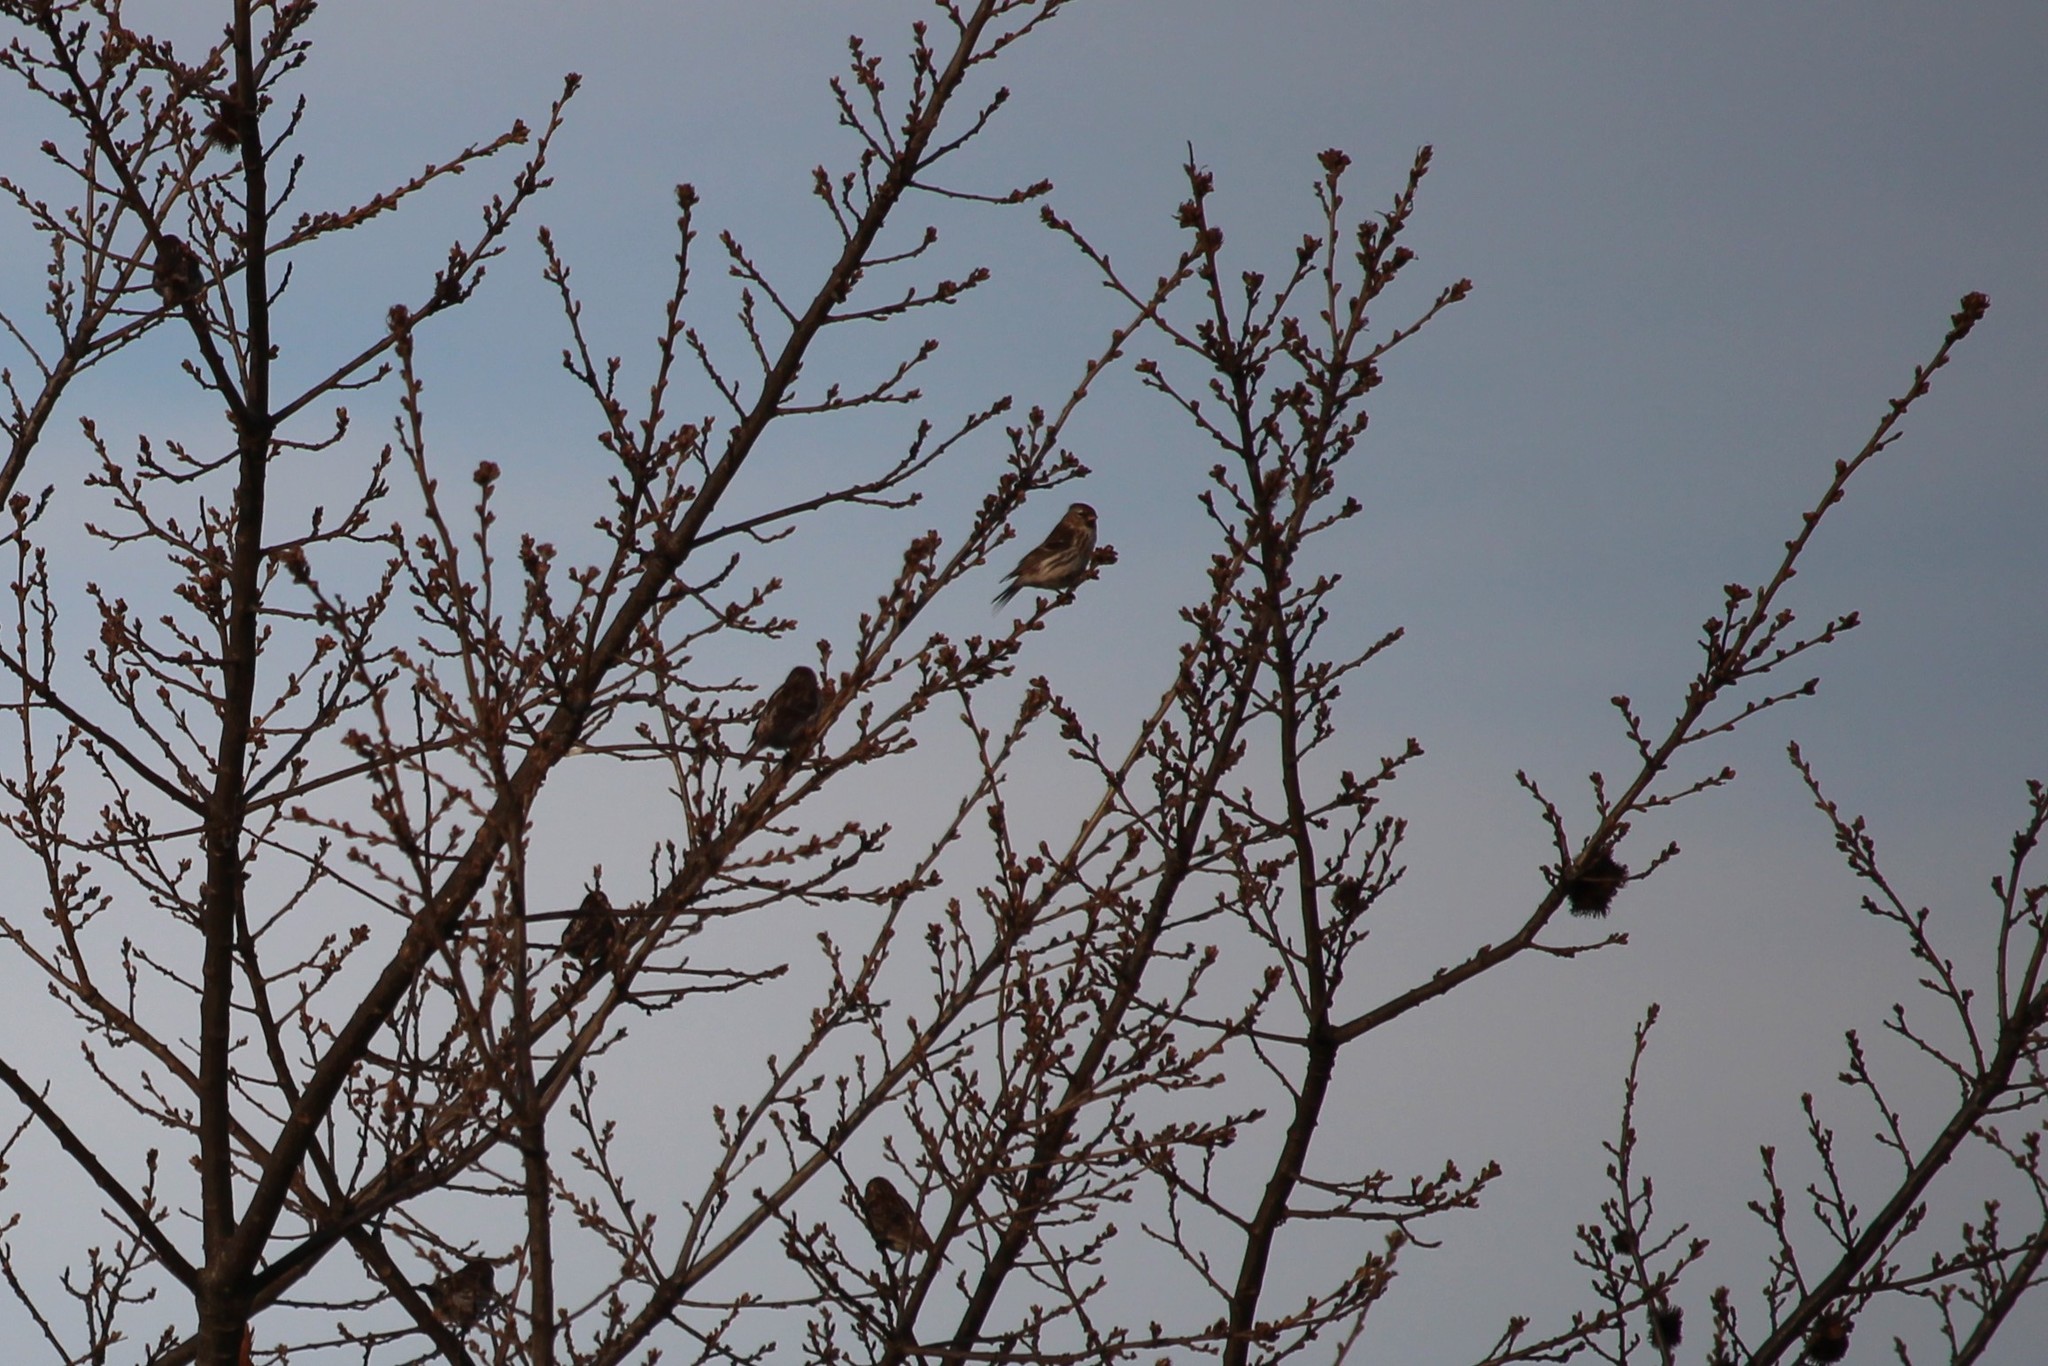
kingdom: Animalia
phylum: Chordata
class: Aves
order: Passeriformes
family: Fringillidae
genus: Acanthis
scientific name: Acanthis flammea
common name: Common redpoll
